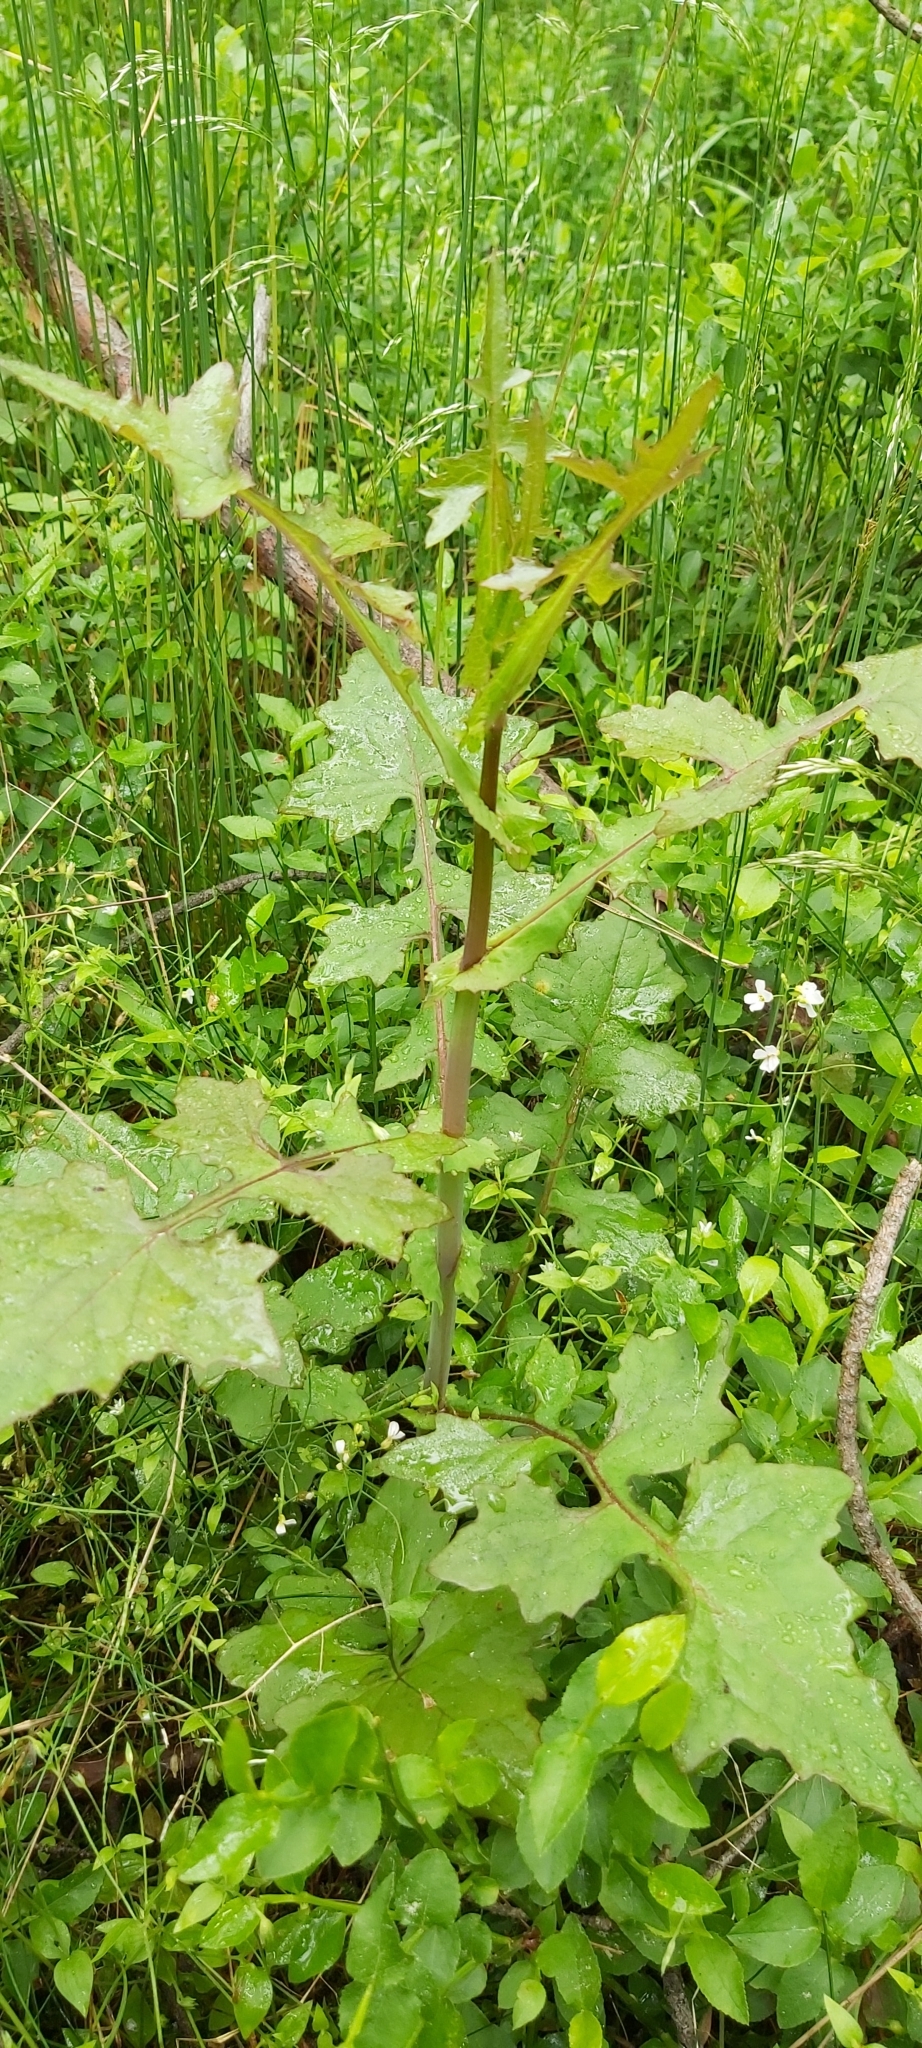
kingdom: Plantae
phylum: Tracheophyta
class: Magnoliopsida
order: Asterales
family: Asteraceae
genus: Mycelis
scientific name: Mycelis muralis
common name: Wall lettuce
